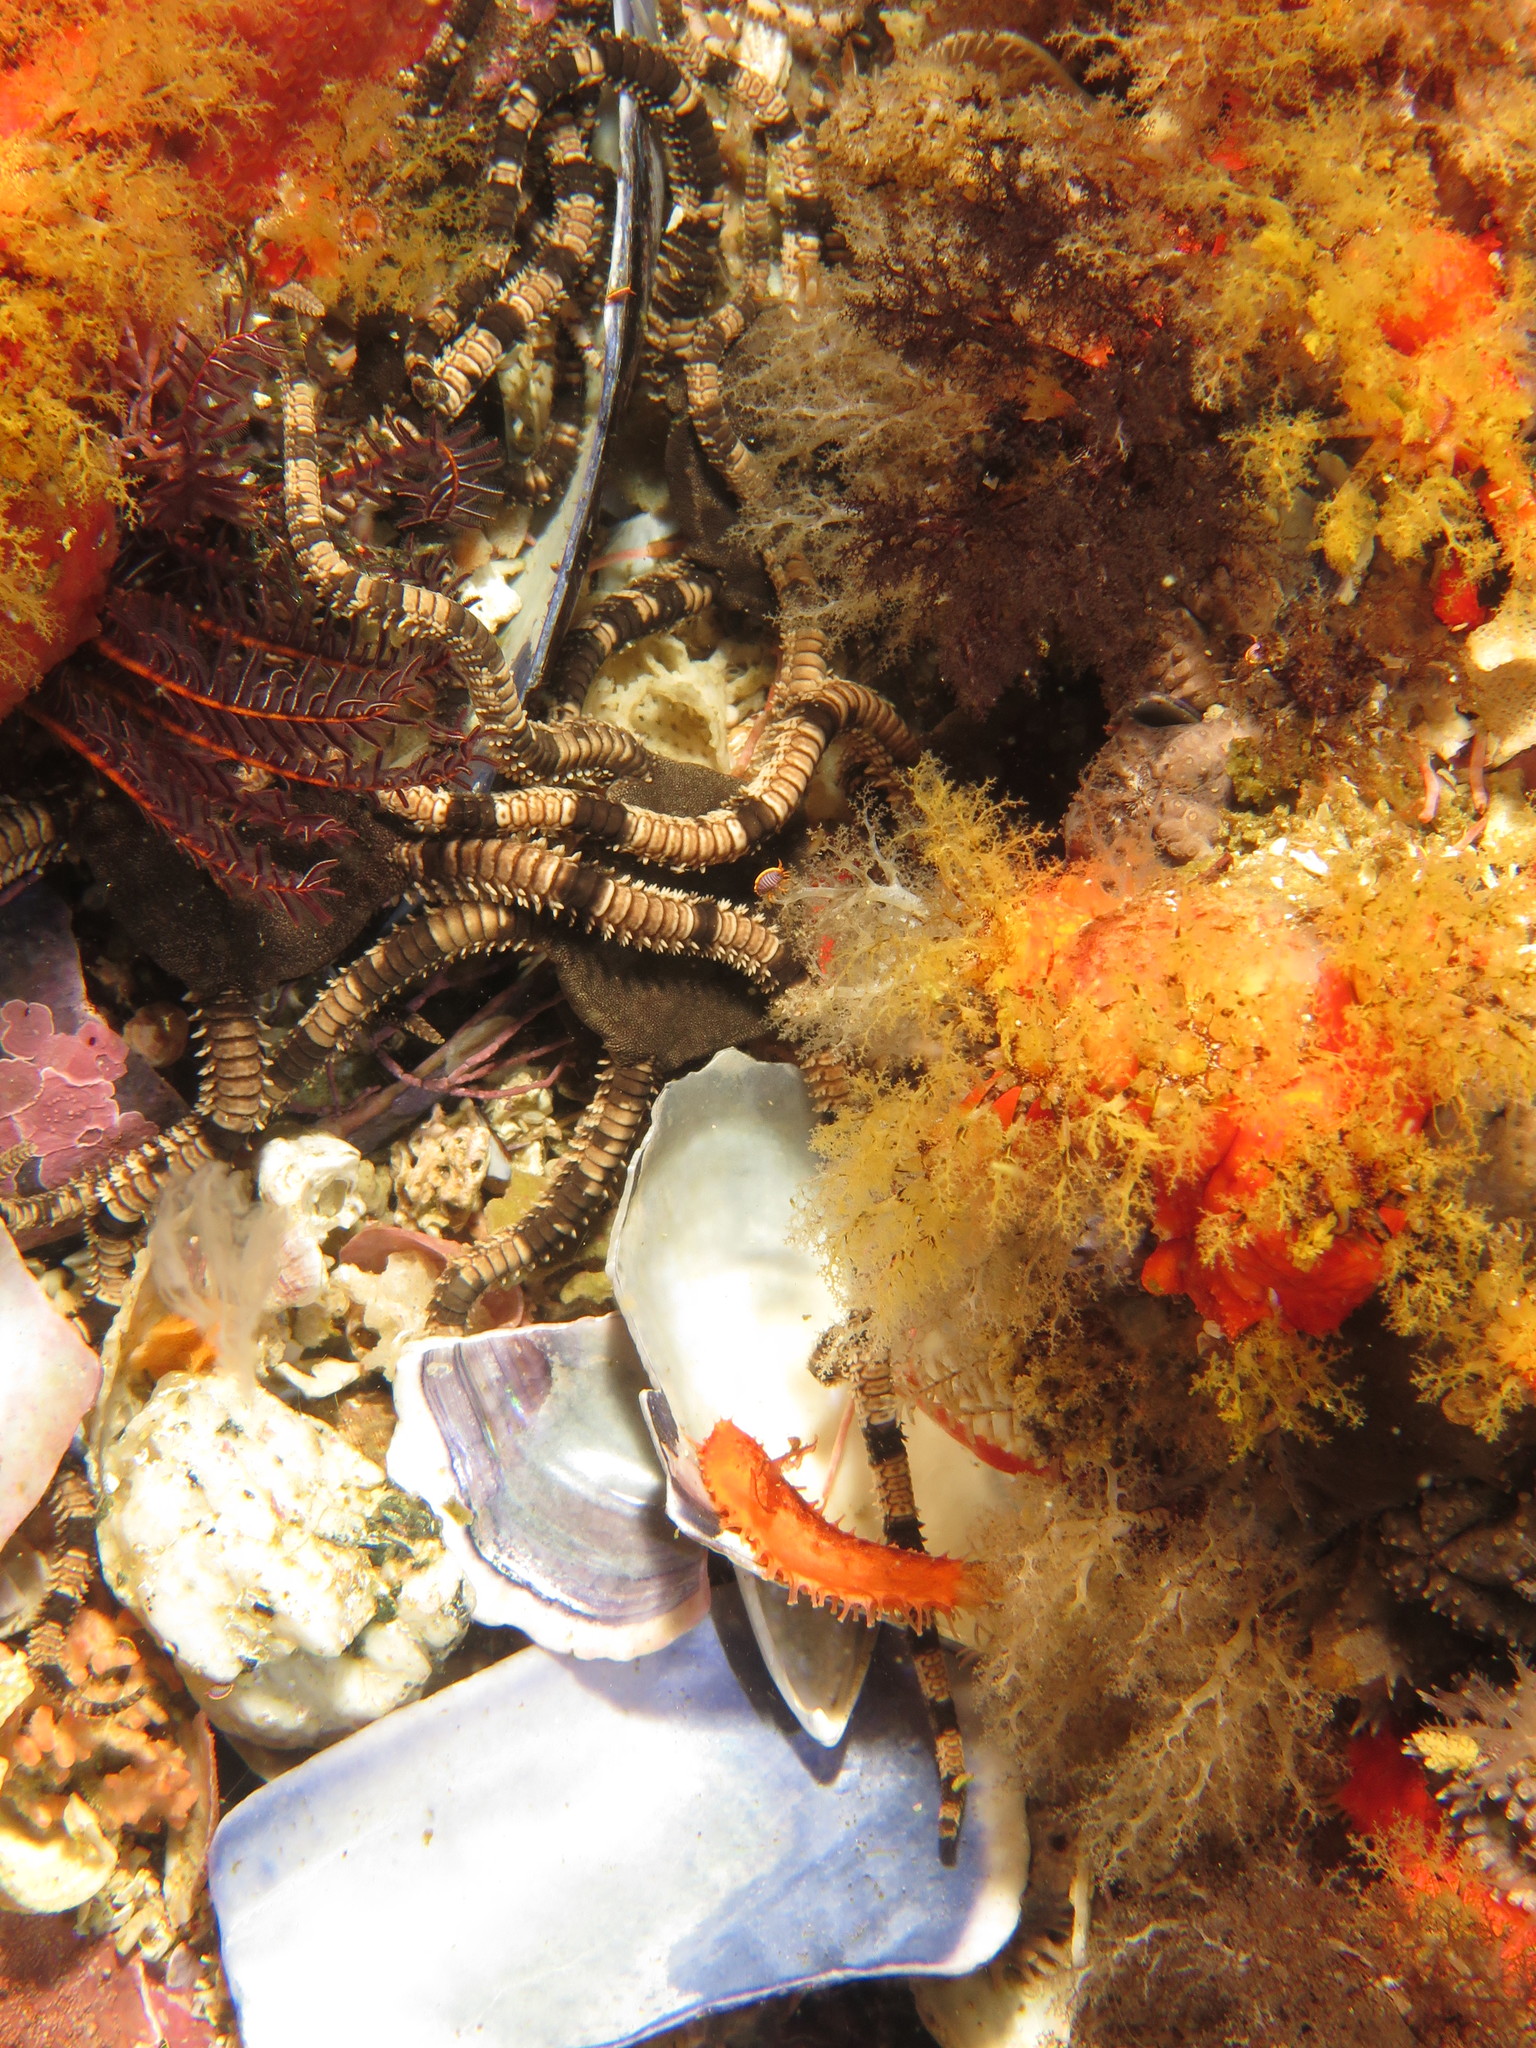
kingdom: Animalia
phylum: Echinodermata
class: Ophiuroidea
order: Ophiacanthida
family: Ophiodermatidae
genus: Ophioderma
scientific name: Ophioderma wahlbergii
